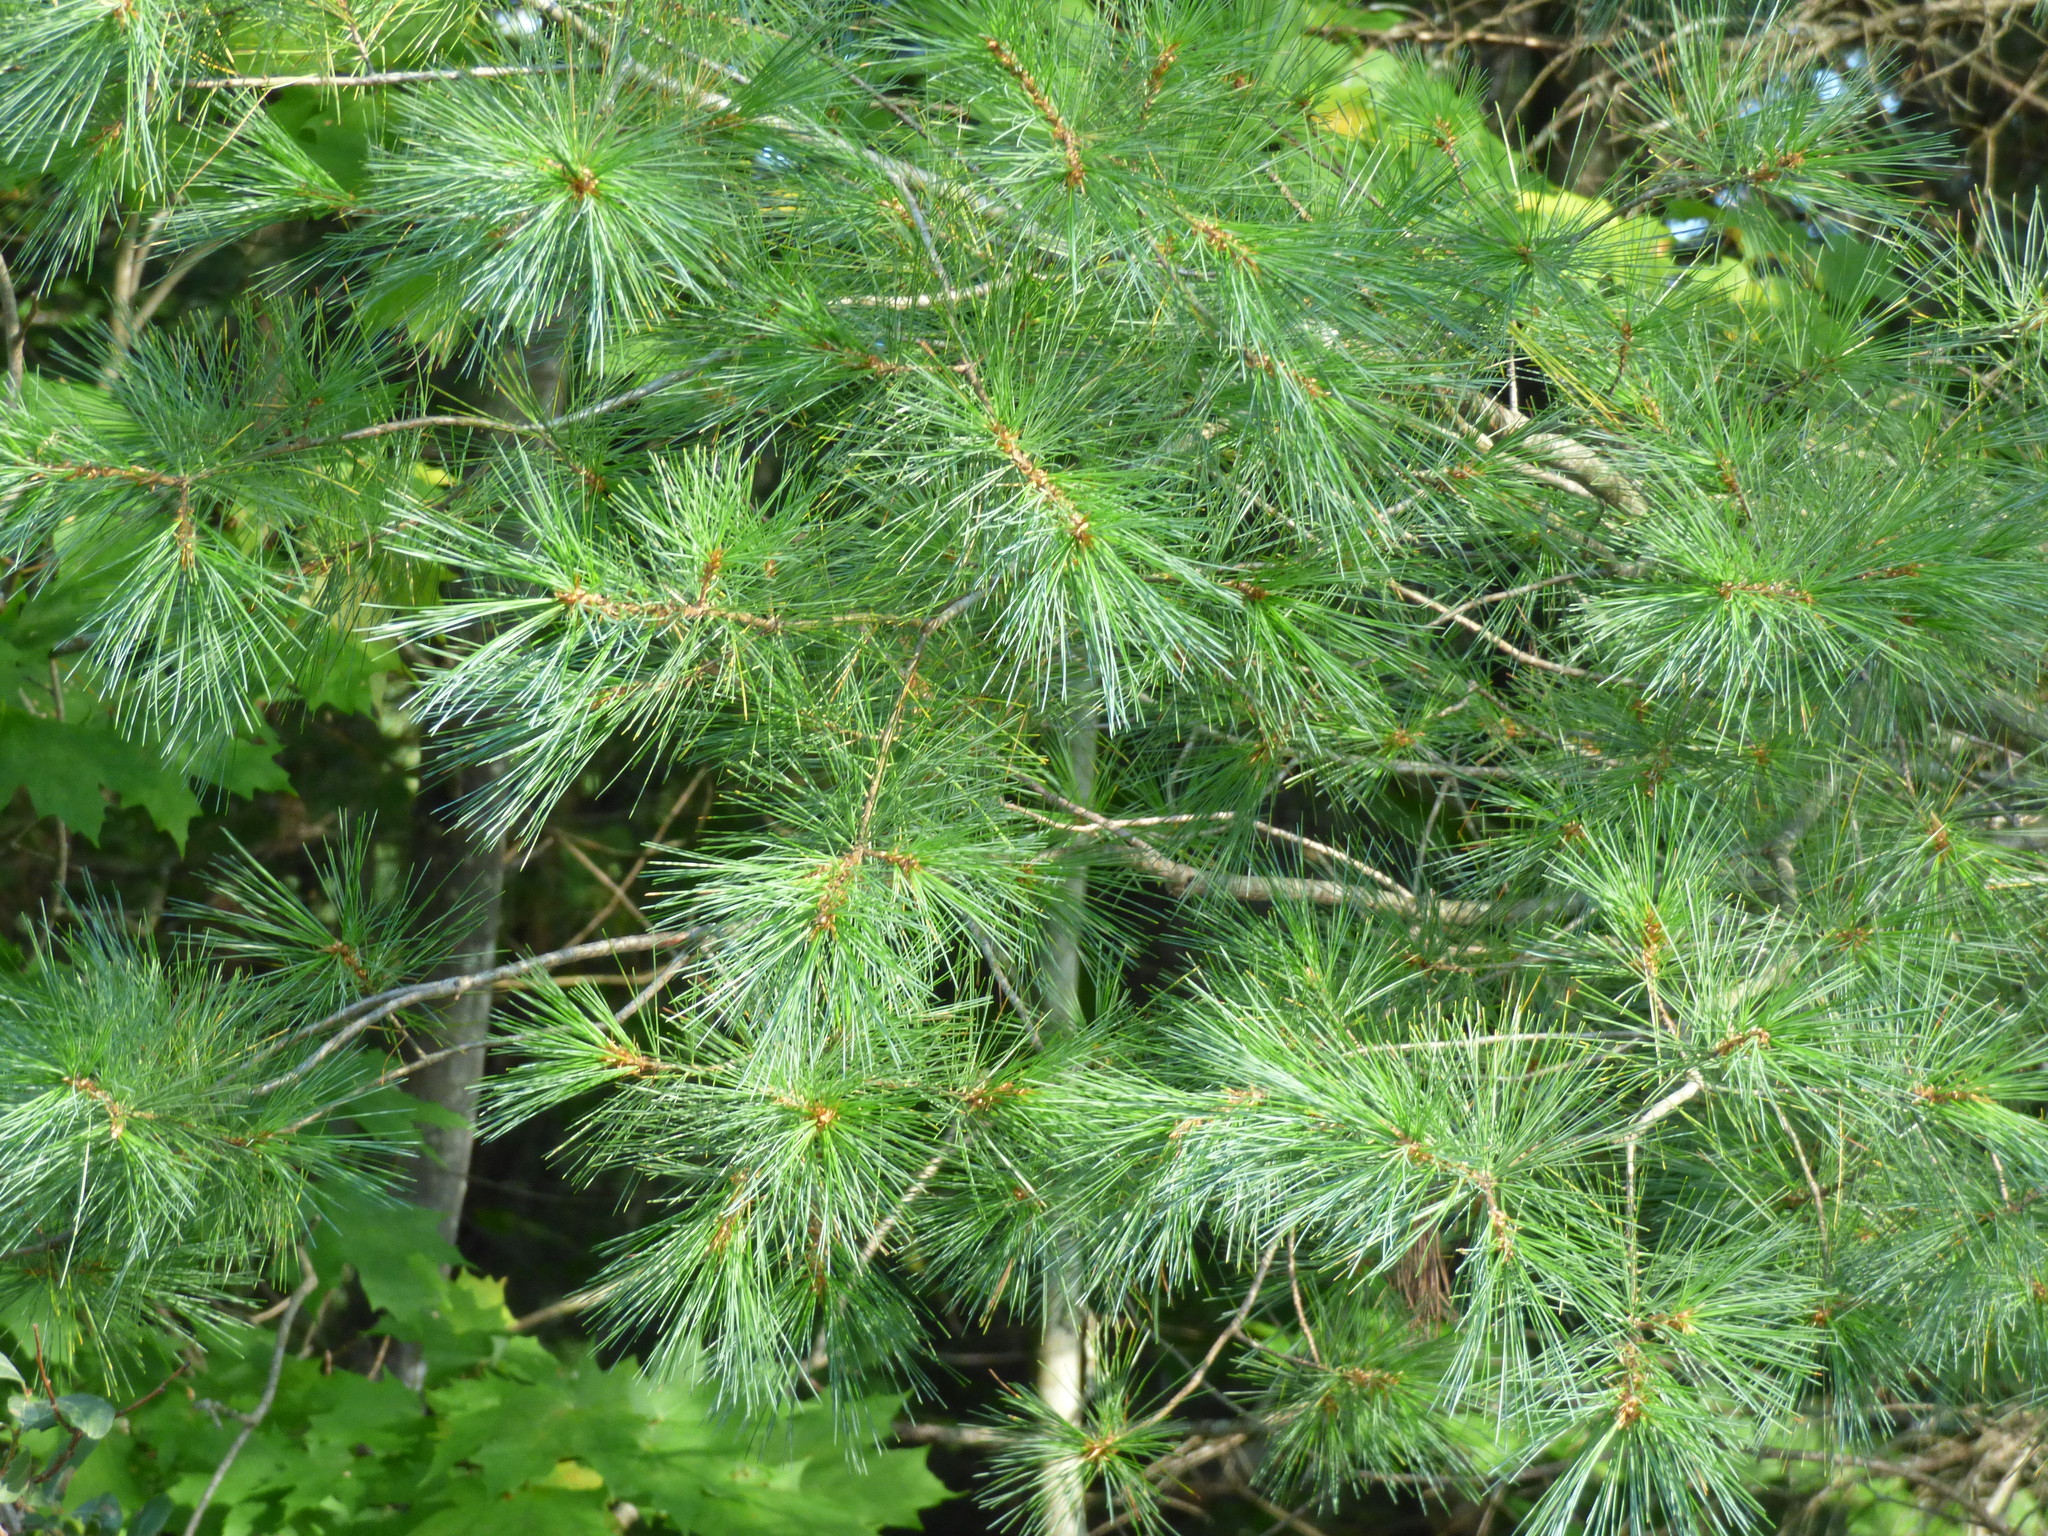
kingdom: Plantae
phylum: Tracheophyta
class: Pinopsida
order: Pinales
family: Pinaceae
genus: Pinus
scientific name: Pinus strobus
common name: Weymouth pine
